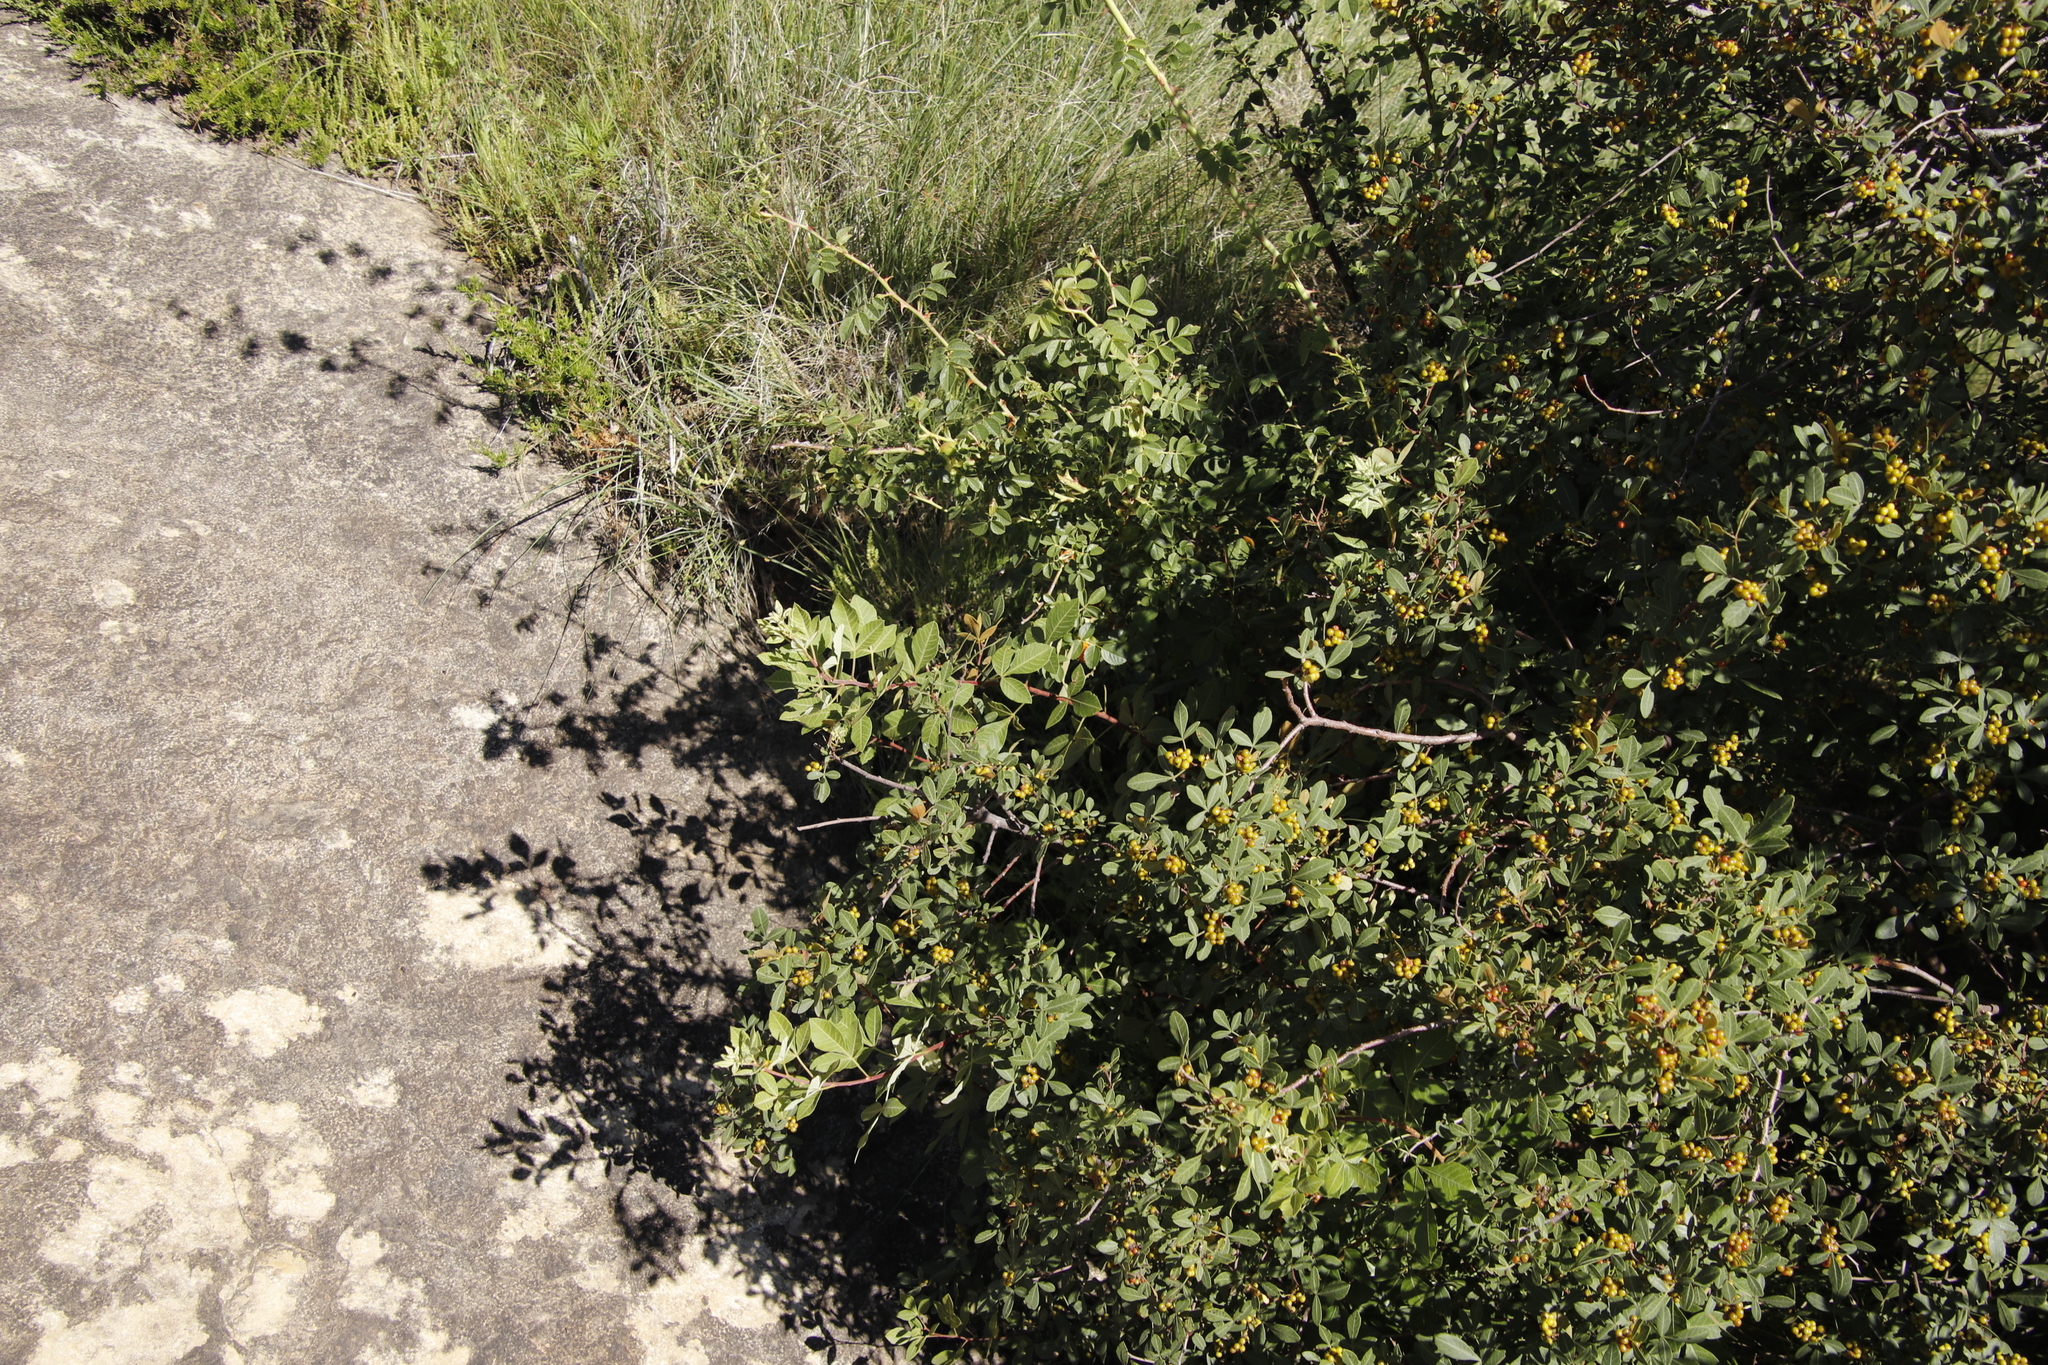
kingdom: Plantae
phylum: Tracheophyta
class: Magnoliopsida
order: Sapindales
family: Anacardiaceae
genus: Searsia
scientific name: Searsia tomentosa
